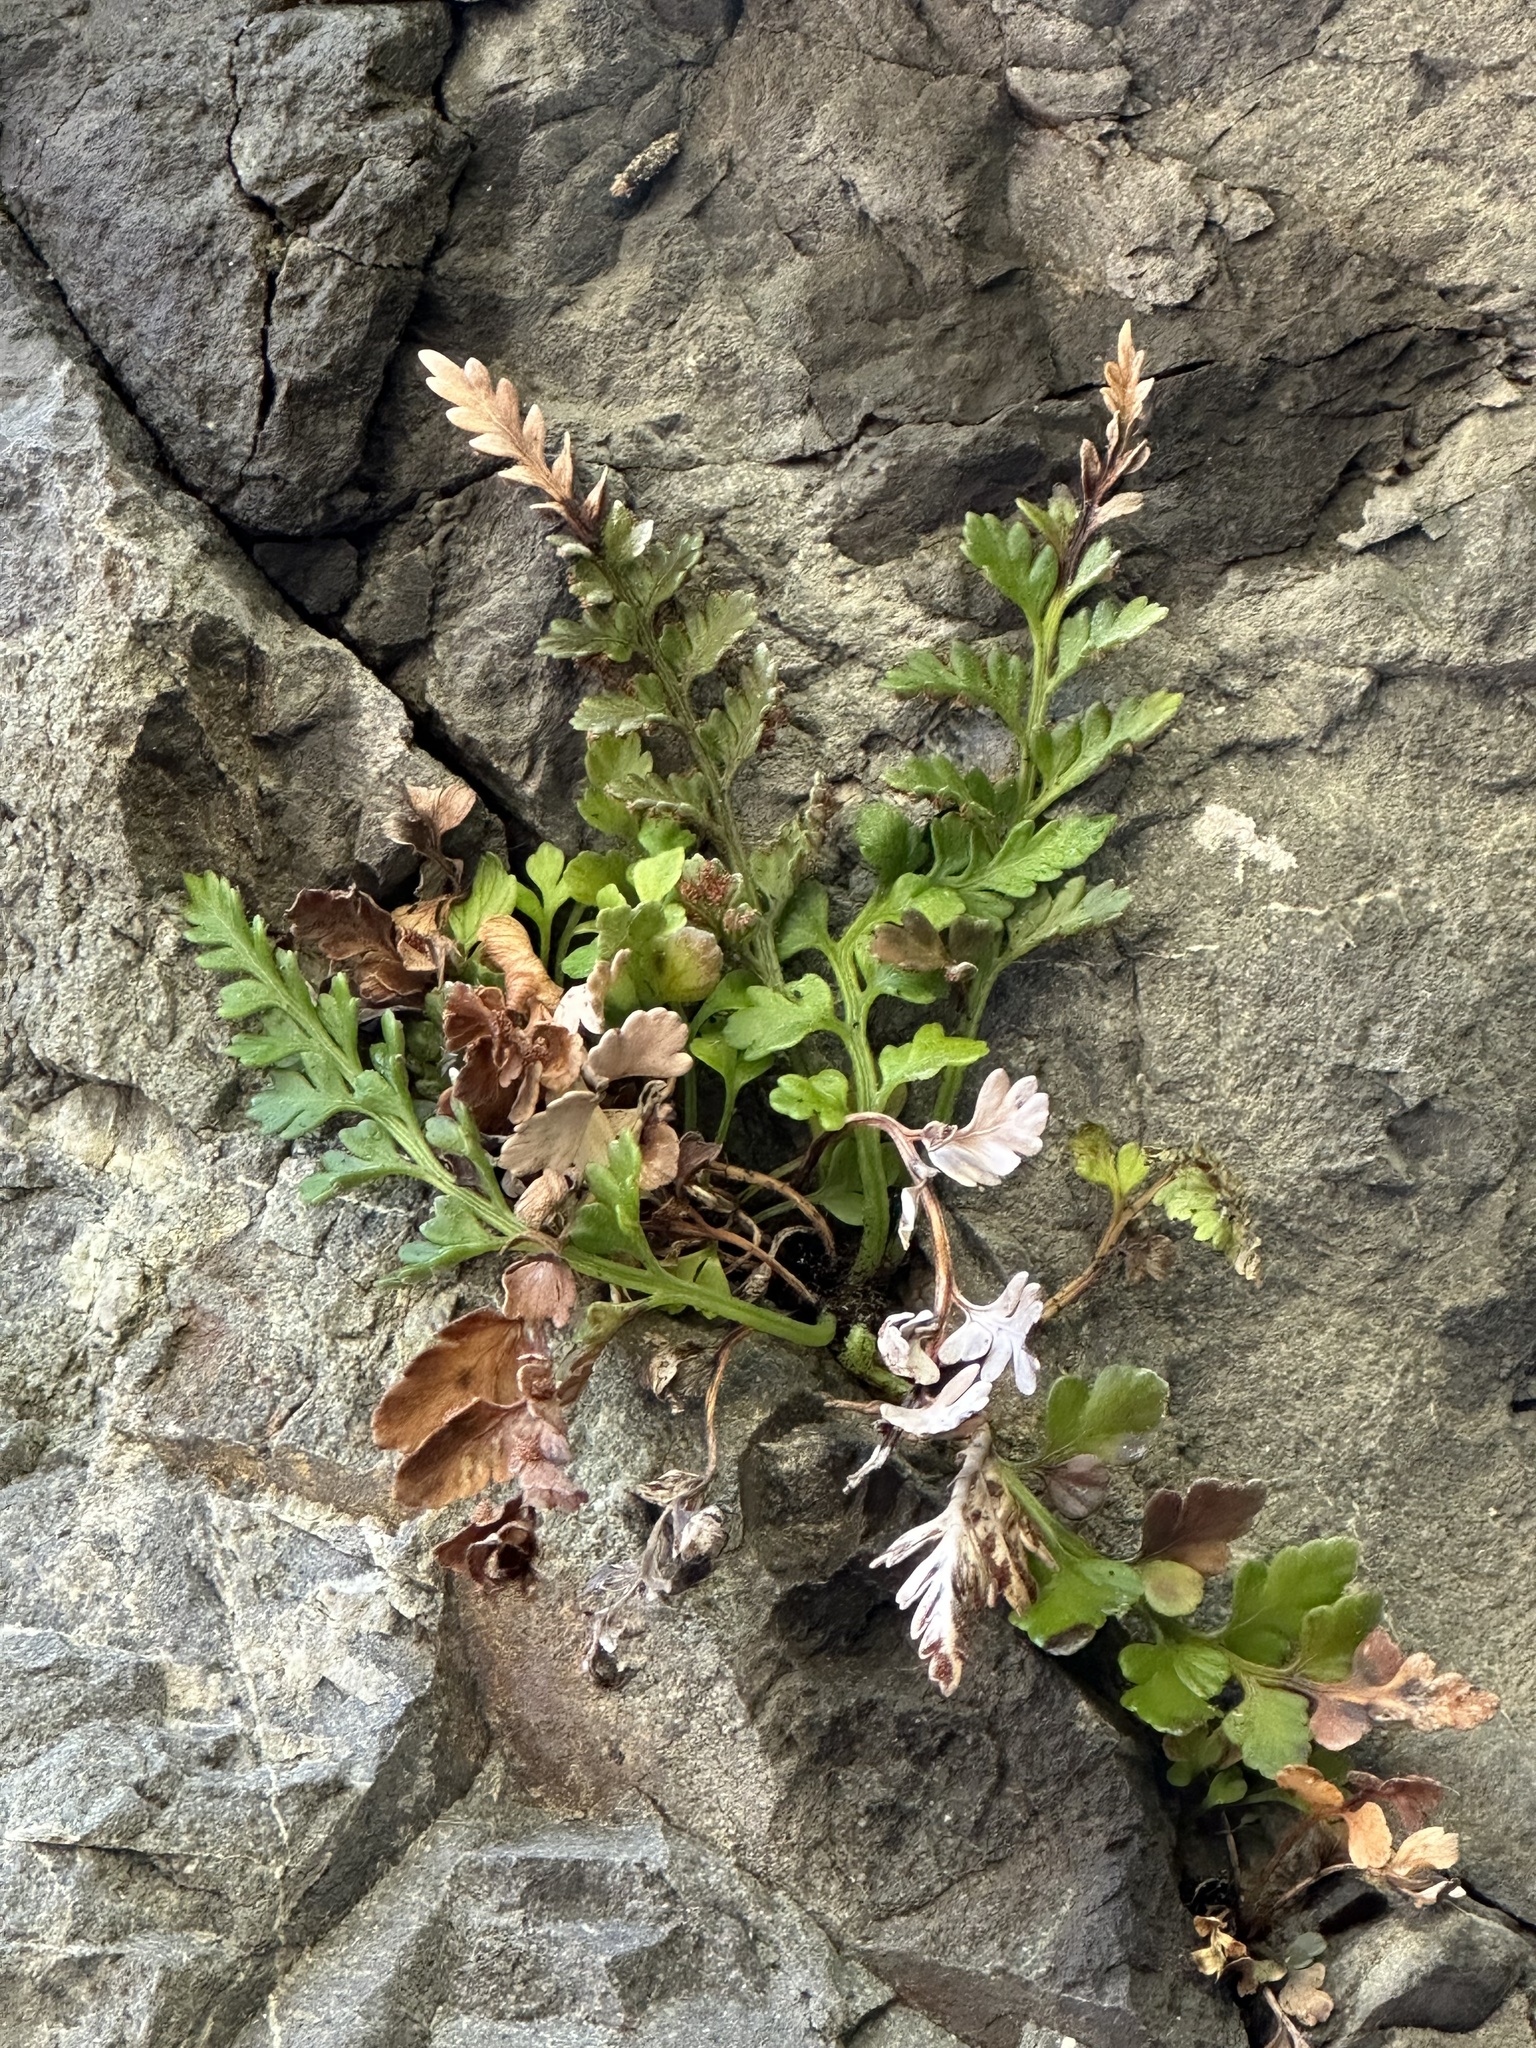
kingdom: Plantae
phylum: Tracheophyta
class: Polypodiopsida
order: Polypodiales
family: Aspleniaceae
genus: Asplenium
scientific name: Asplenium appendiculatum
